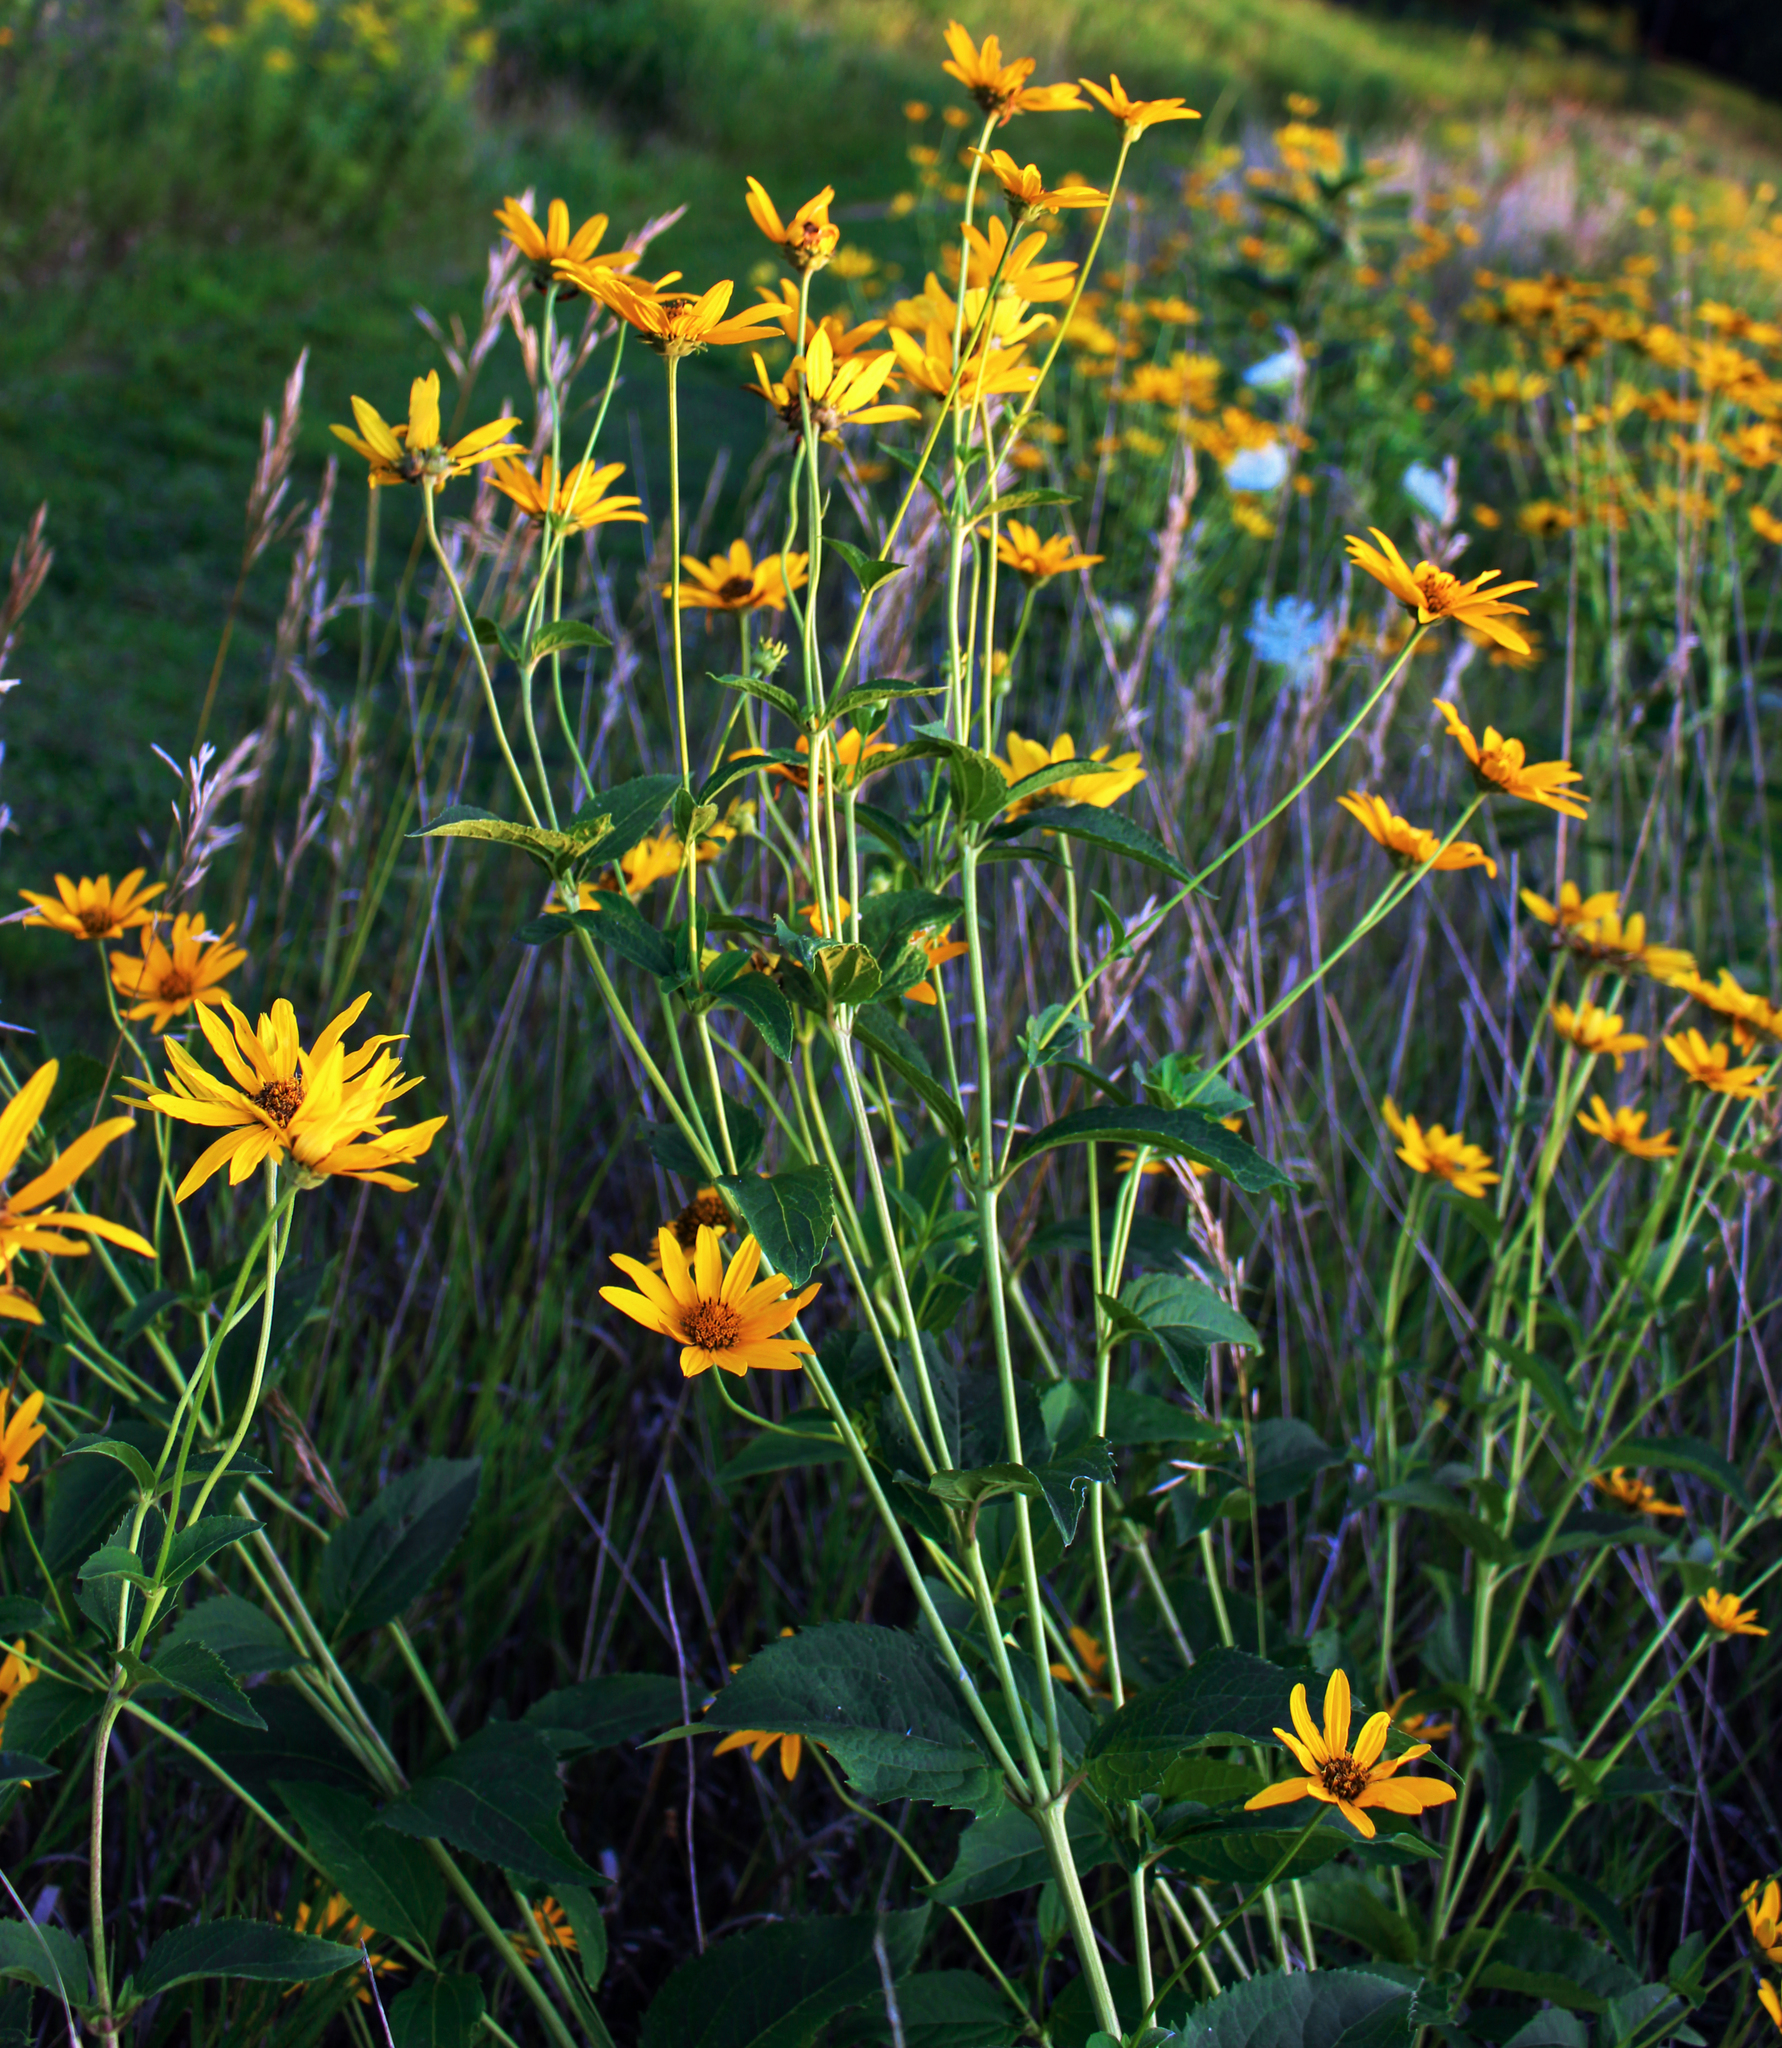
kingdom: Plantae
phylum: Tracheophyta
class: Magnoliopsida
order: Asterales
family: Asteraceae
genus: Heliopsis
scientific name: Heliopsis helianthoides
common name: False sunflower
